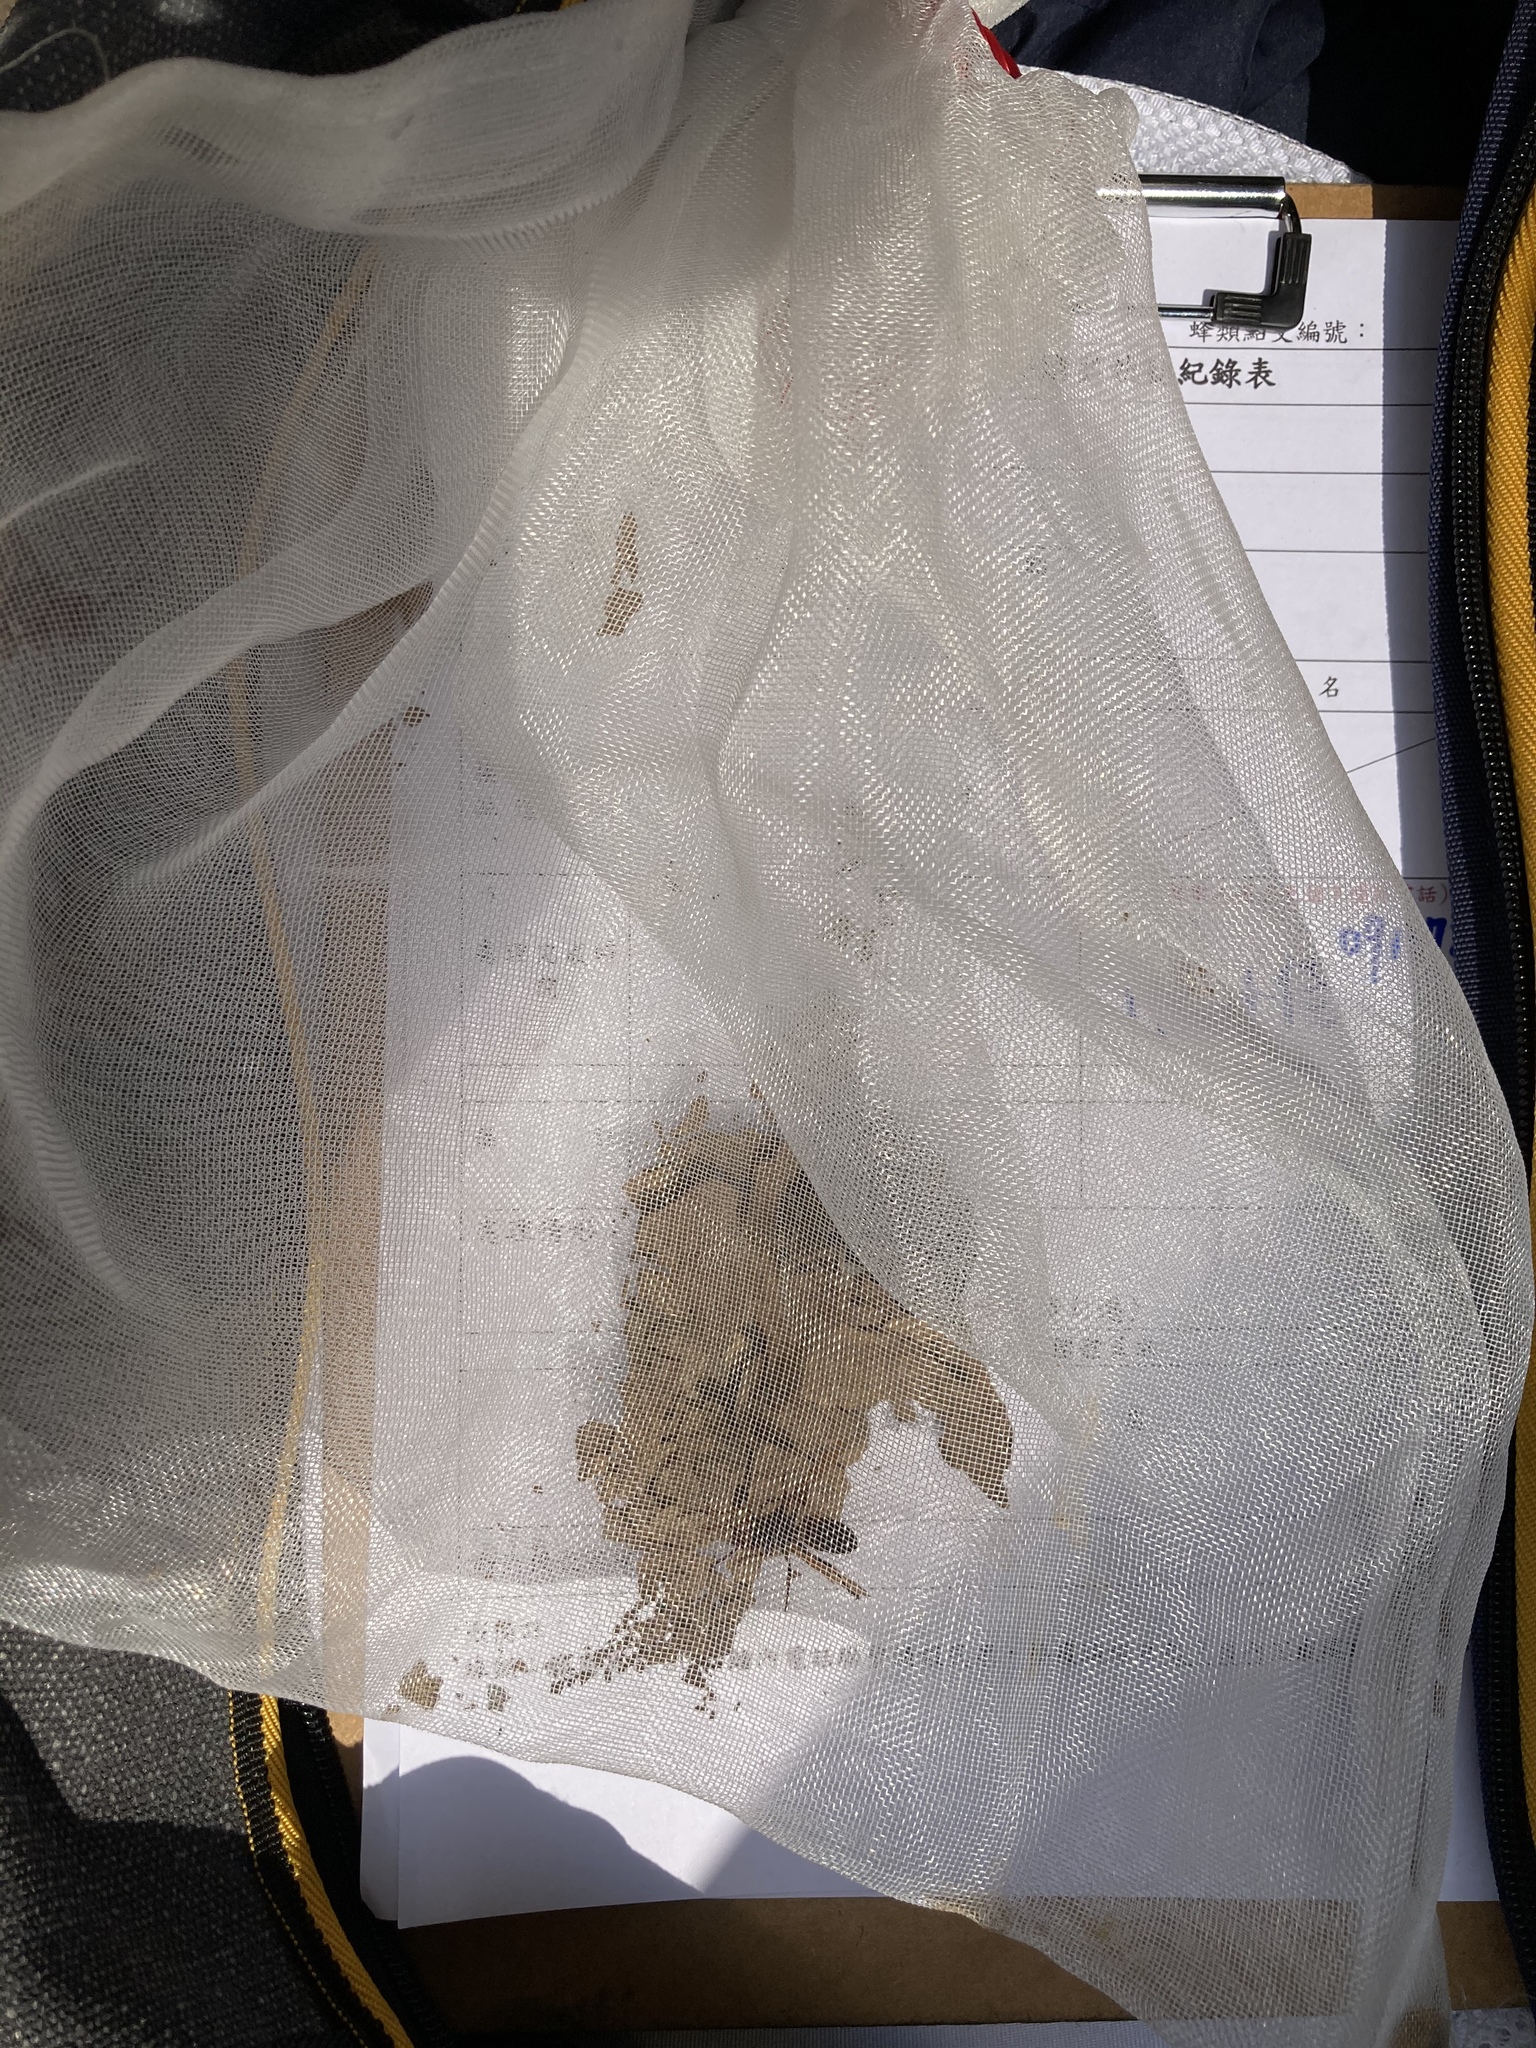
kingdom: Animalia
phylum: Arthropoda
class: Insecta
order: Hymenoptera
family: Vespidae
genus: Vespa
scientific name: Vespa affinis
